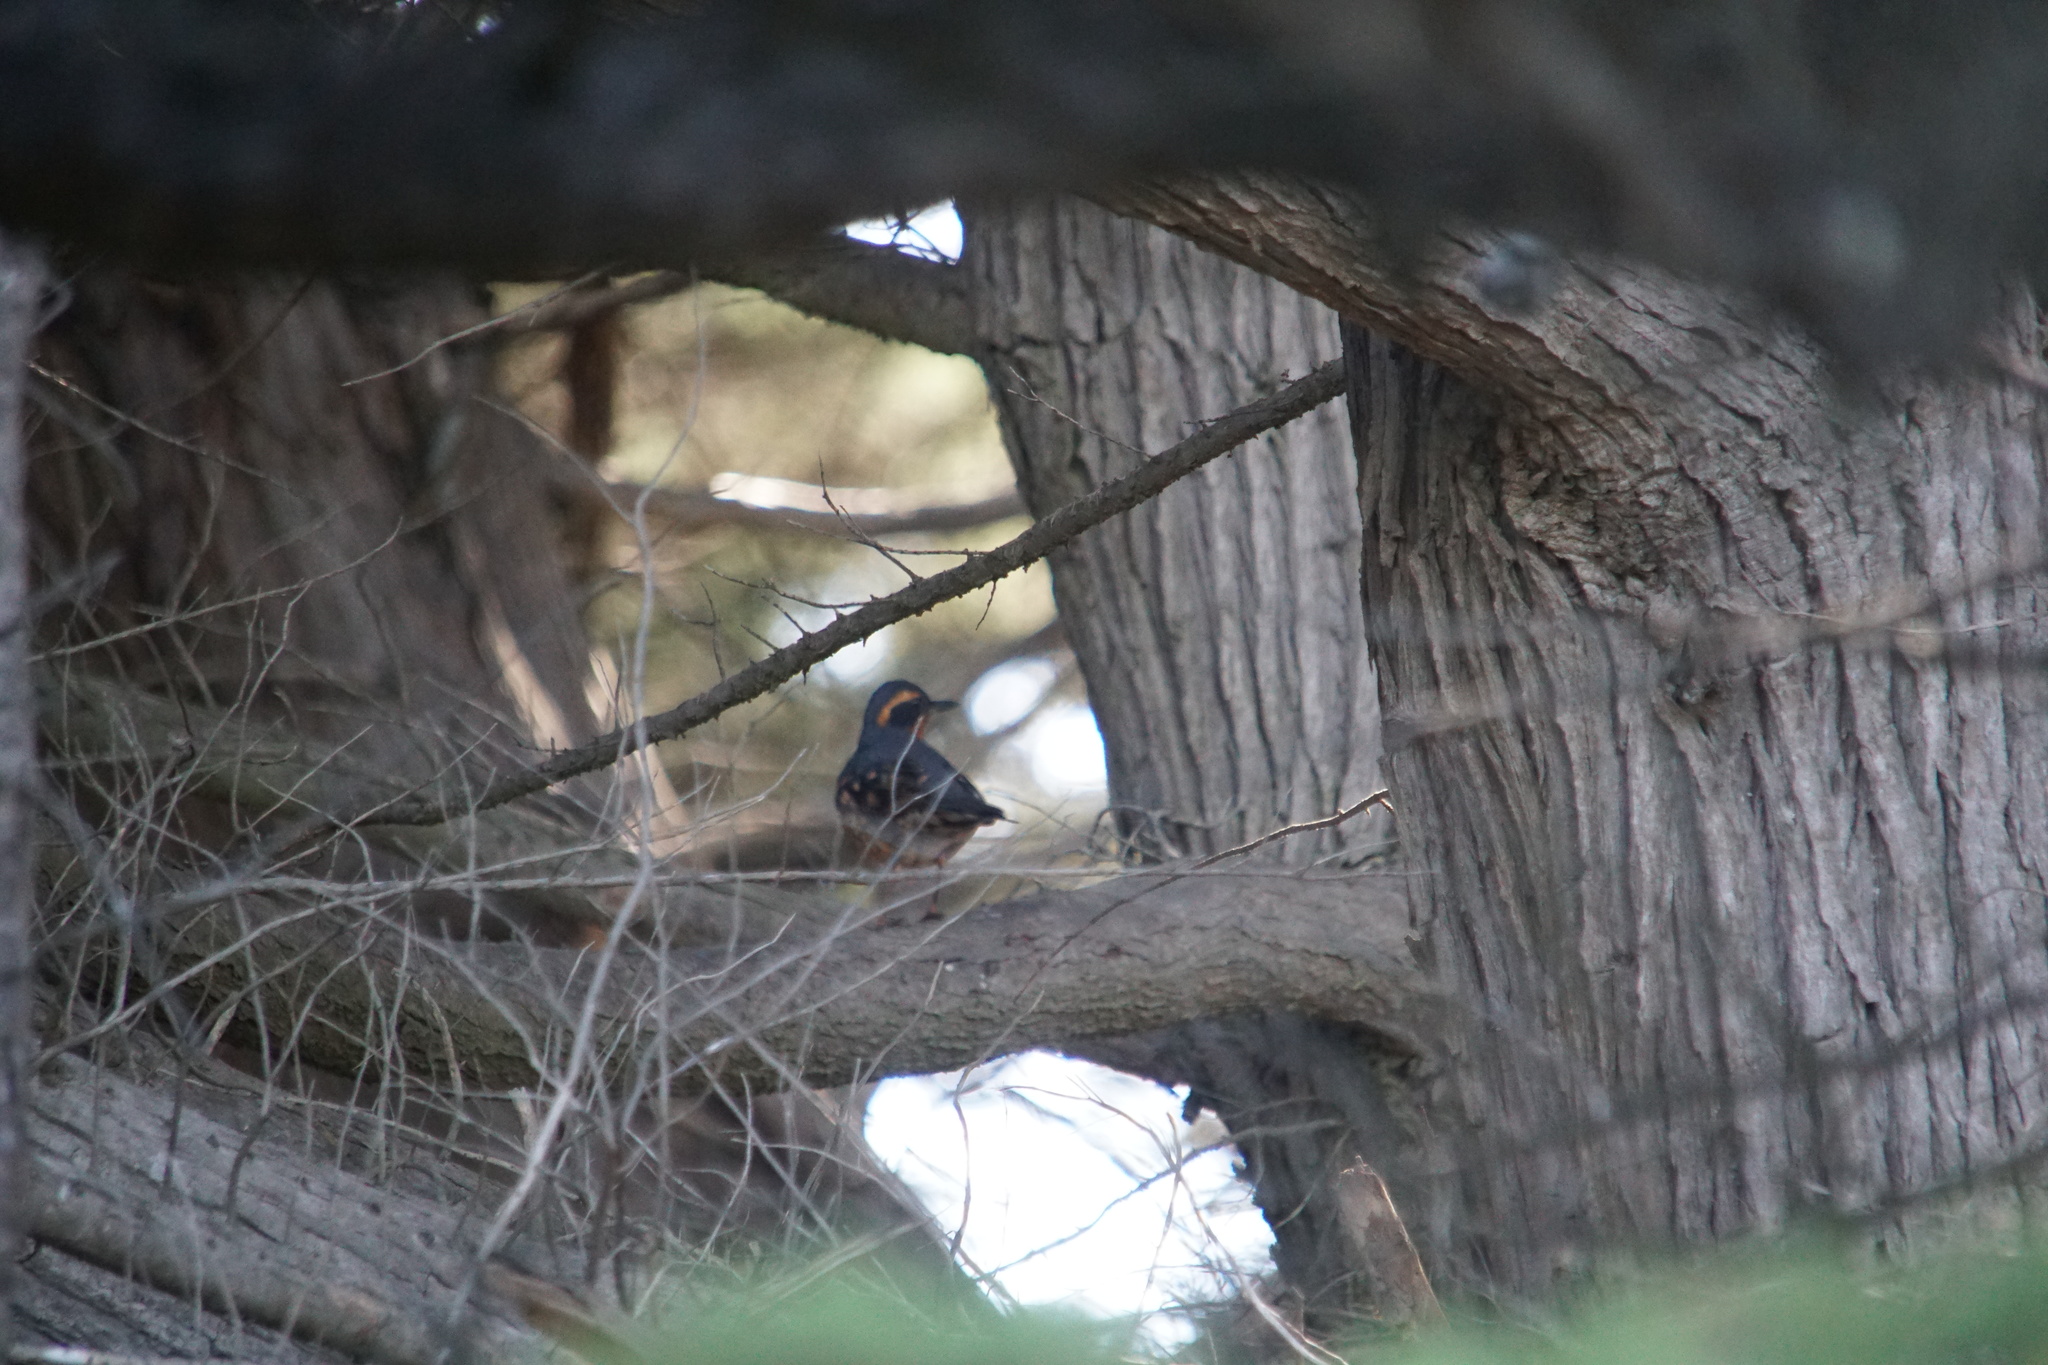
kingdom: Animalia
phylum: Chordata
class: Aves
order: Passeriformes
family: Turdidae
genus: Ixoreus
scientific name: Ixoreus naevius
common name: Varied thrush
